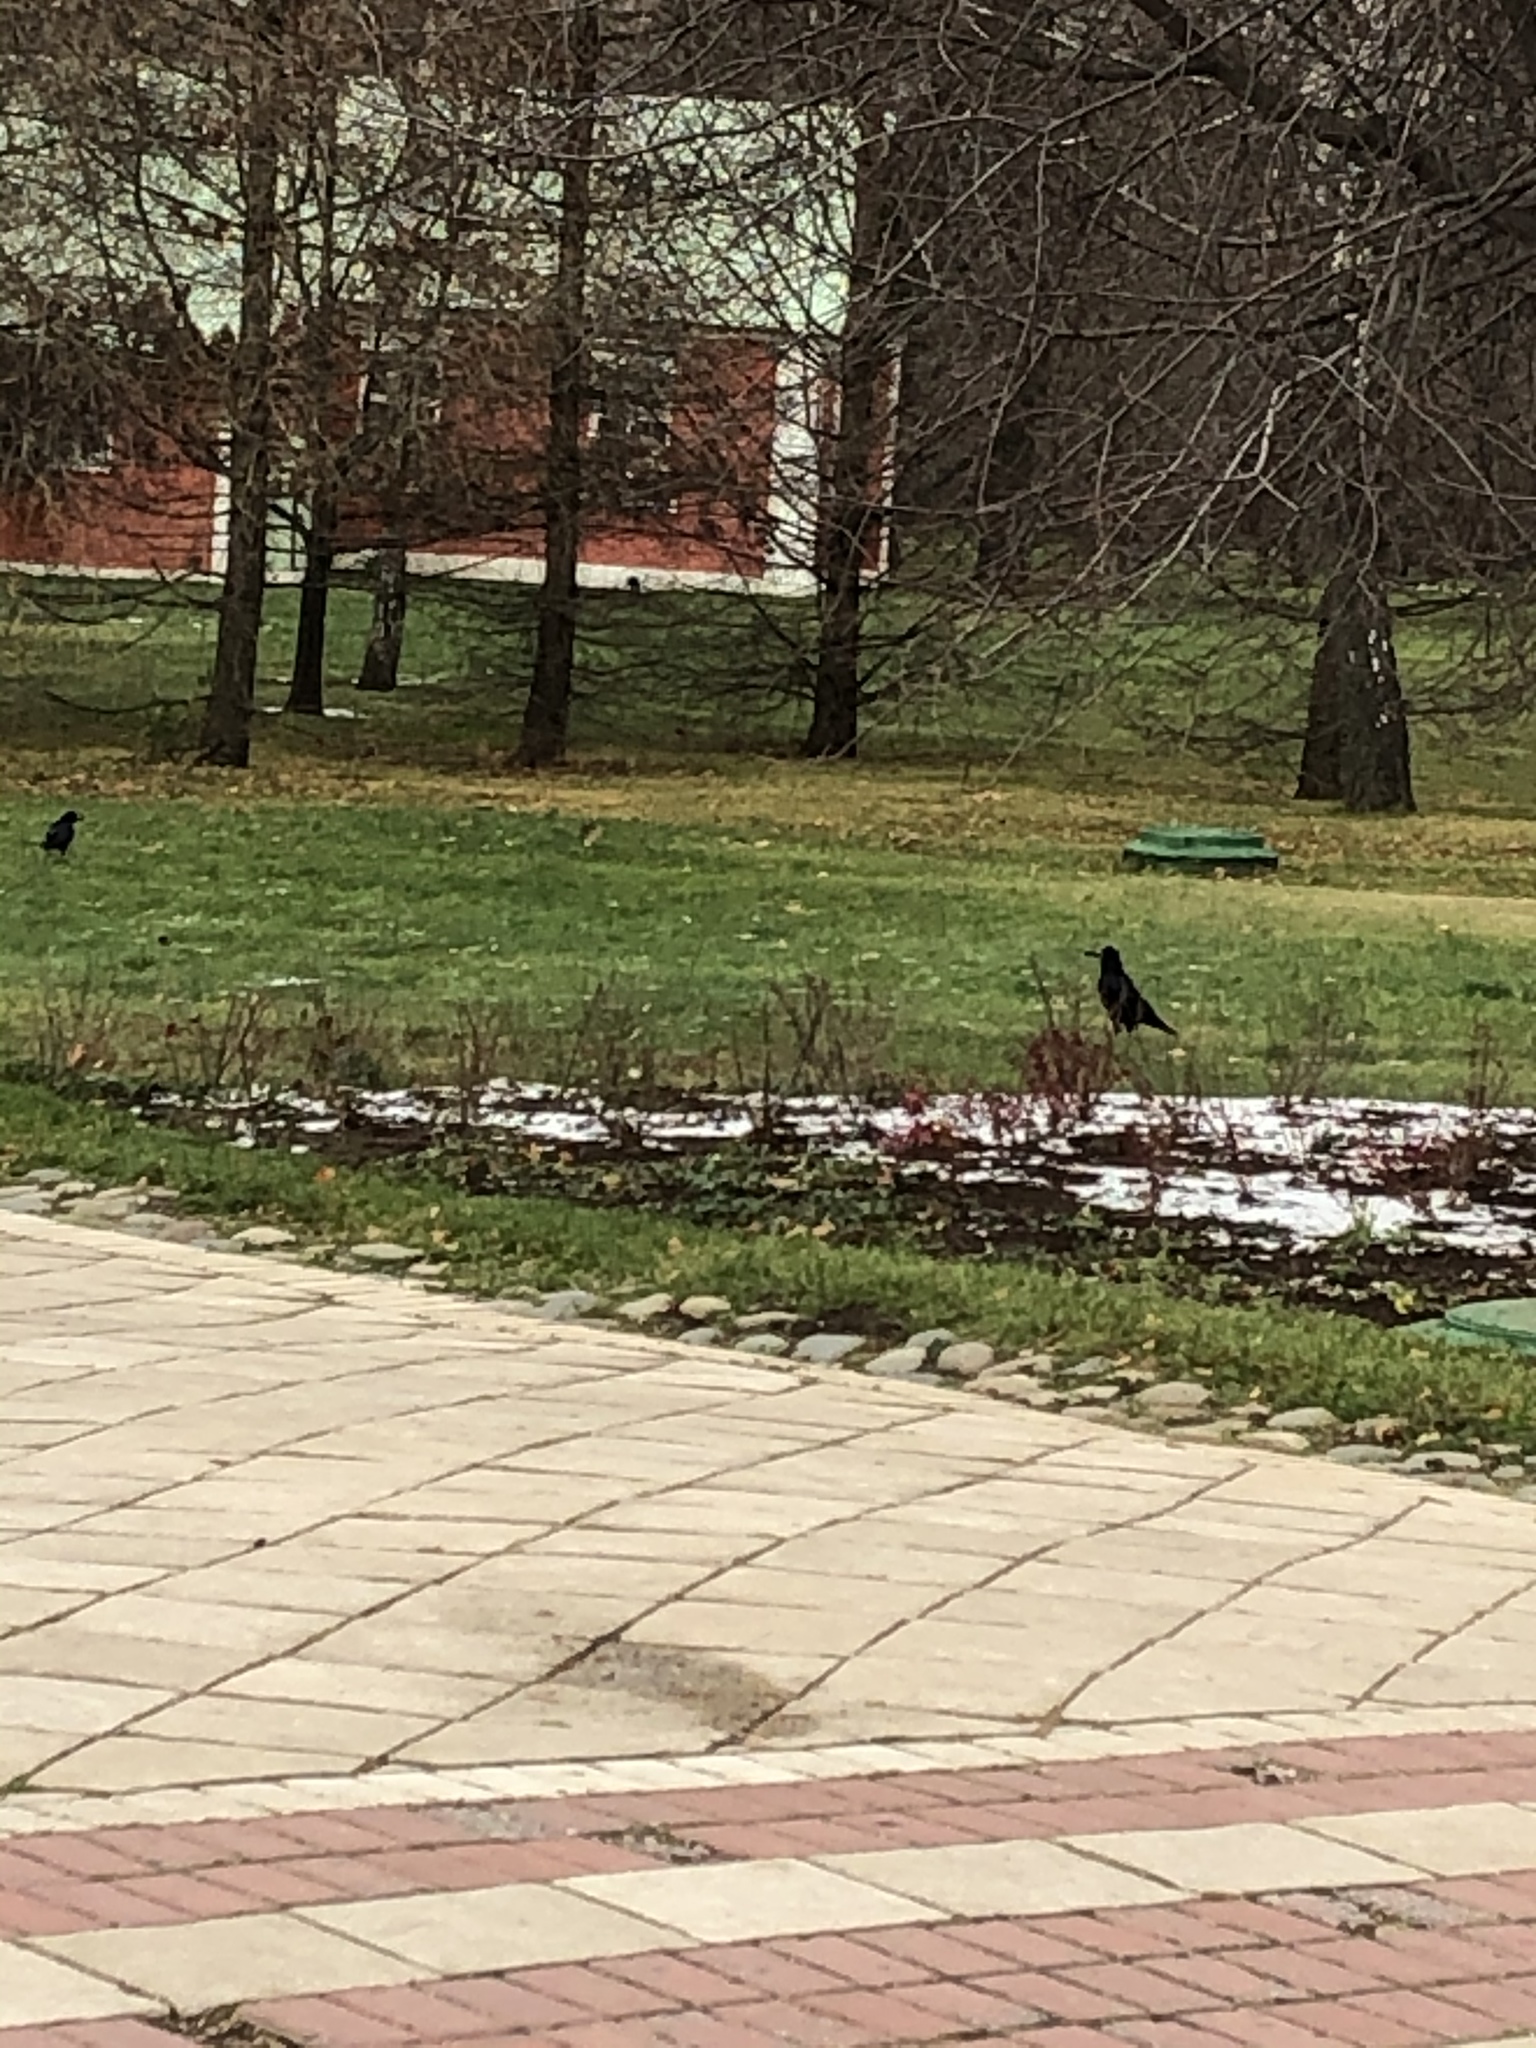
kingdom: Animalia
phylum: Chordata
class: Aves
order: Passeriformes
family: Corvidae
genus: Corvus
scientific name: Corvus frugilegus
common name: Rook
